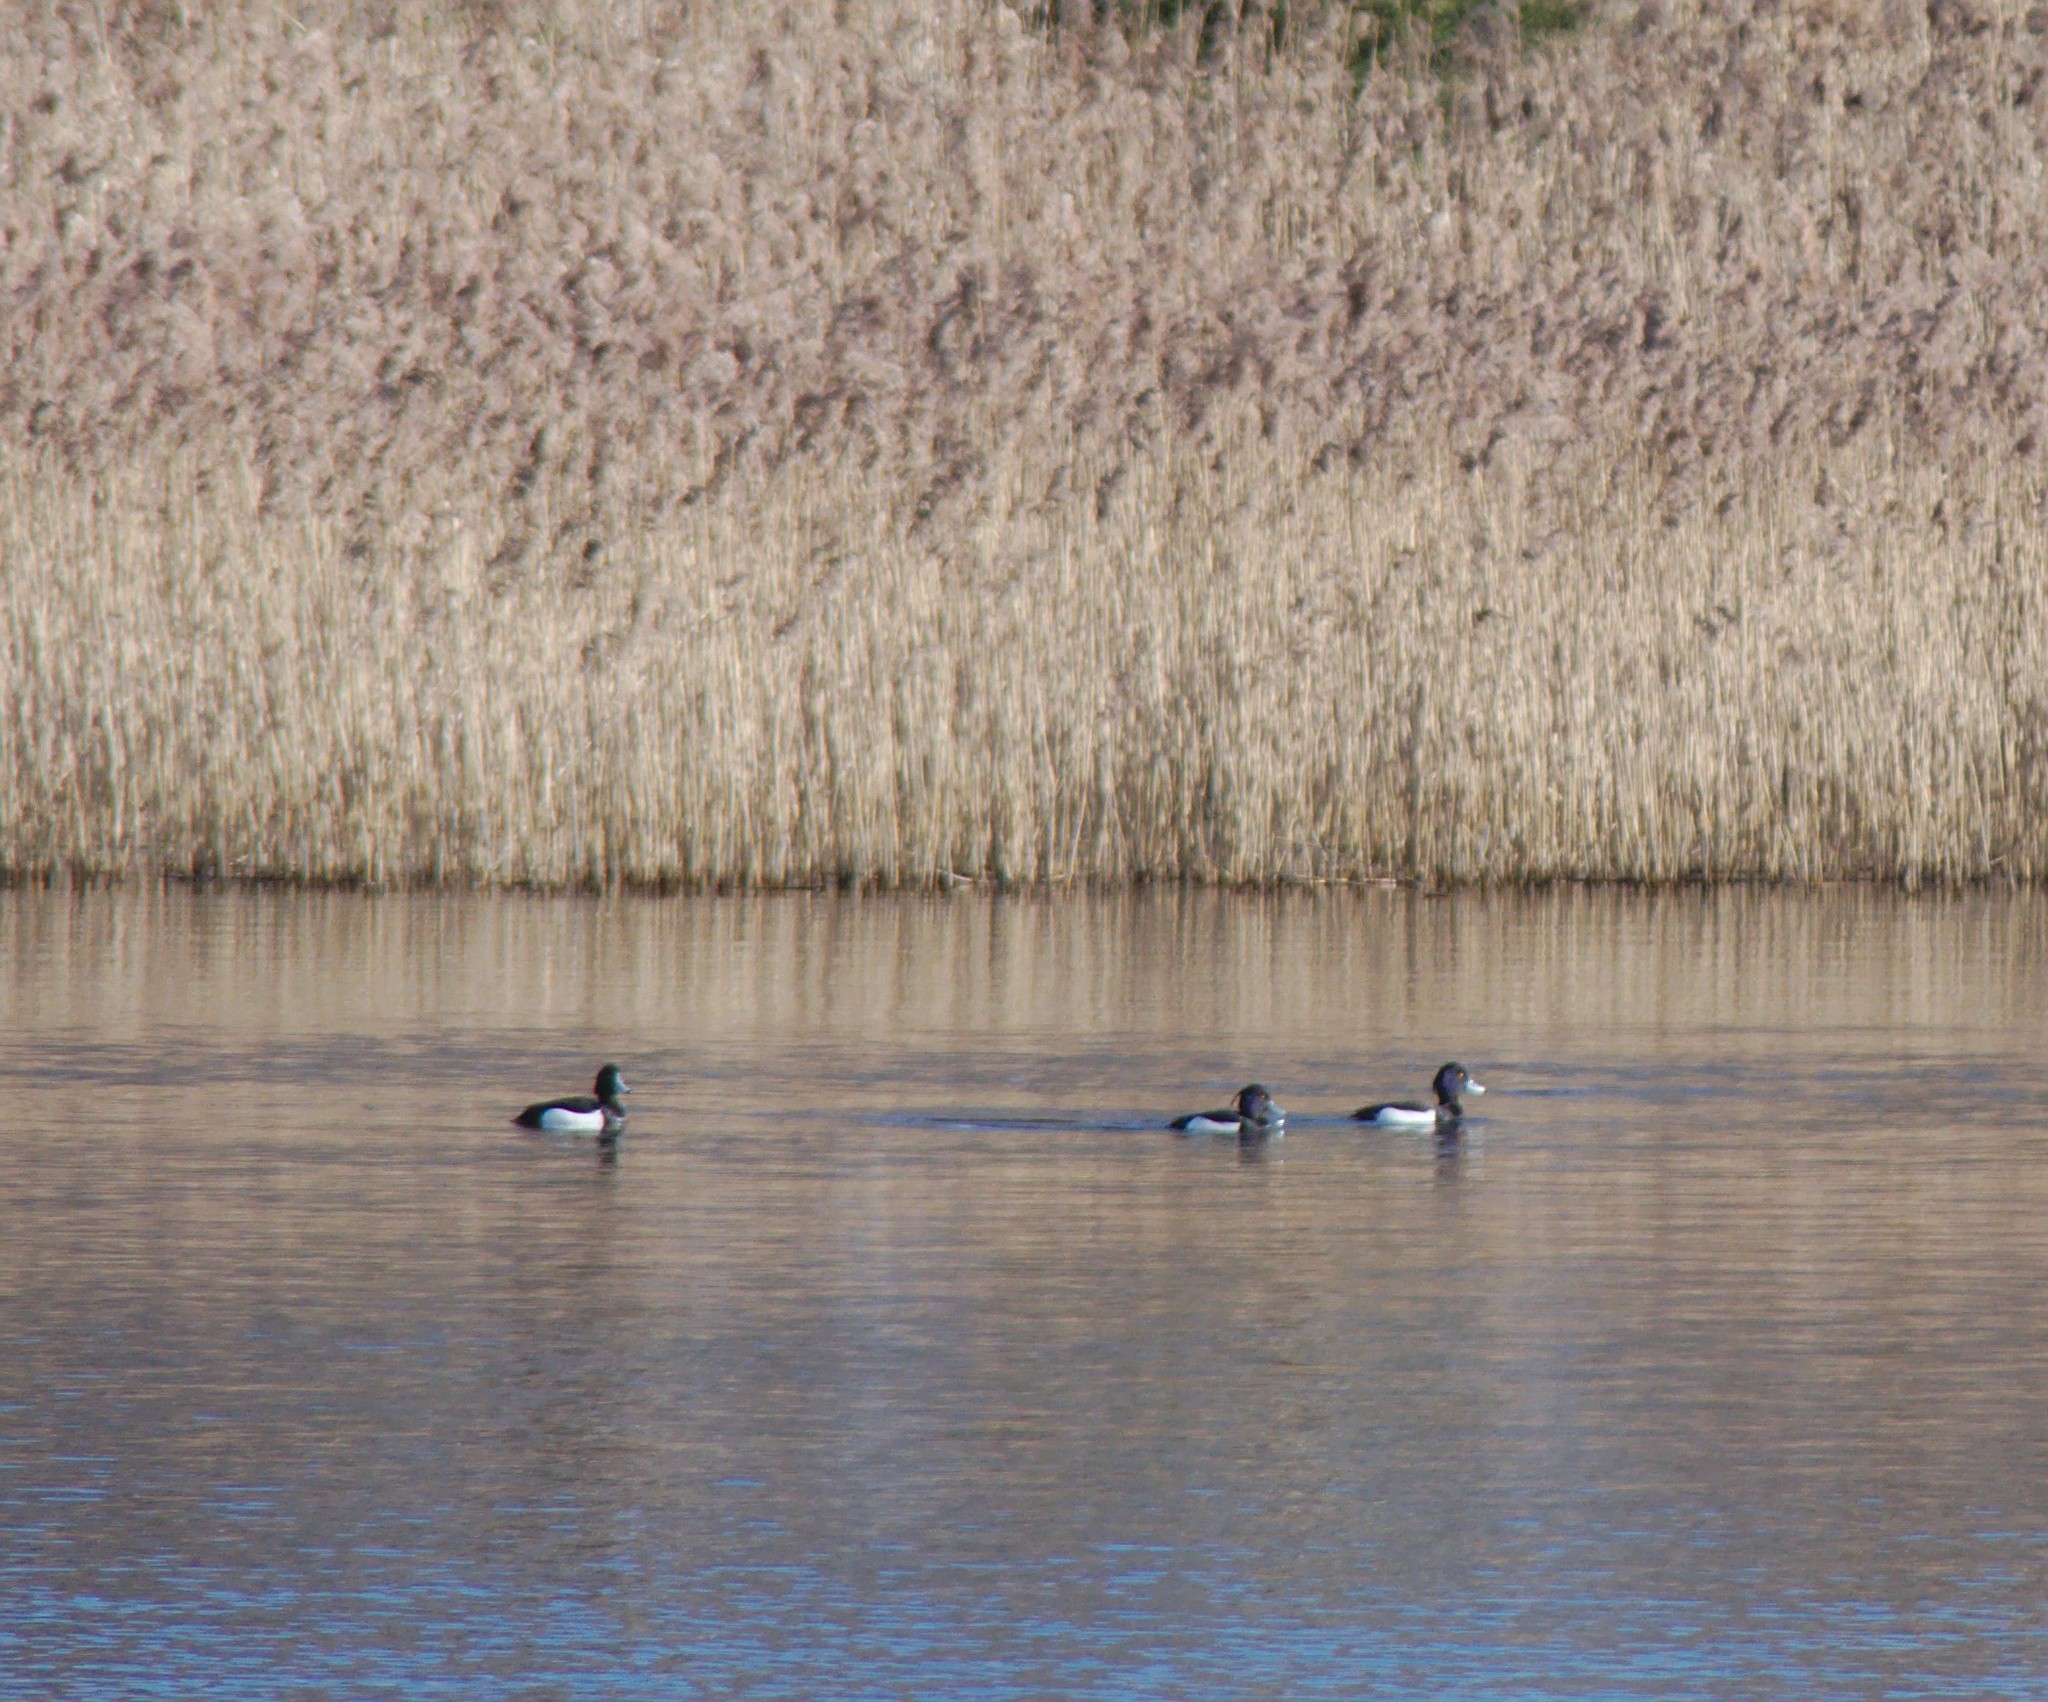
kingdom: Animalia
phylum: Chordata
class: Aves
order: Anseriformes
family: Anatidae
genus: Aythya
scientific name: Aythya fuligula
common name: Tufted duck
